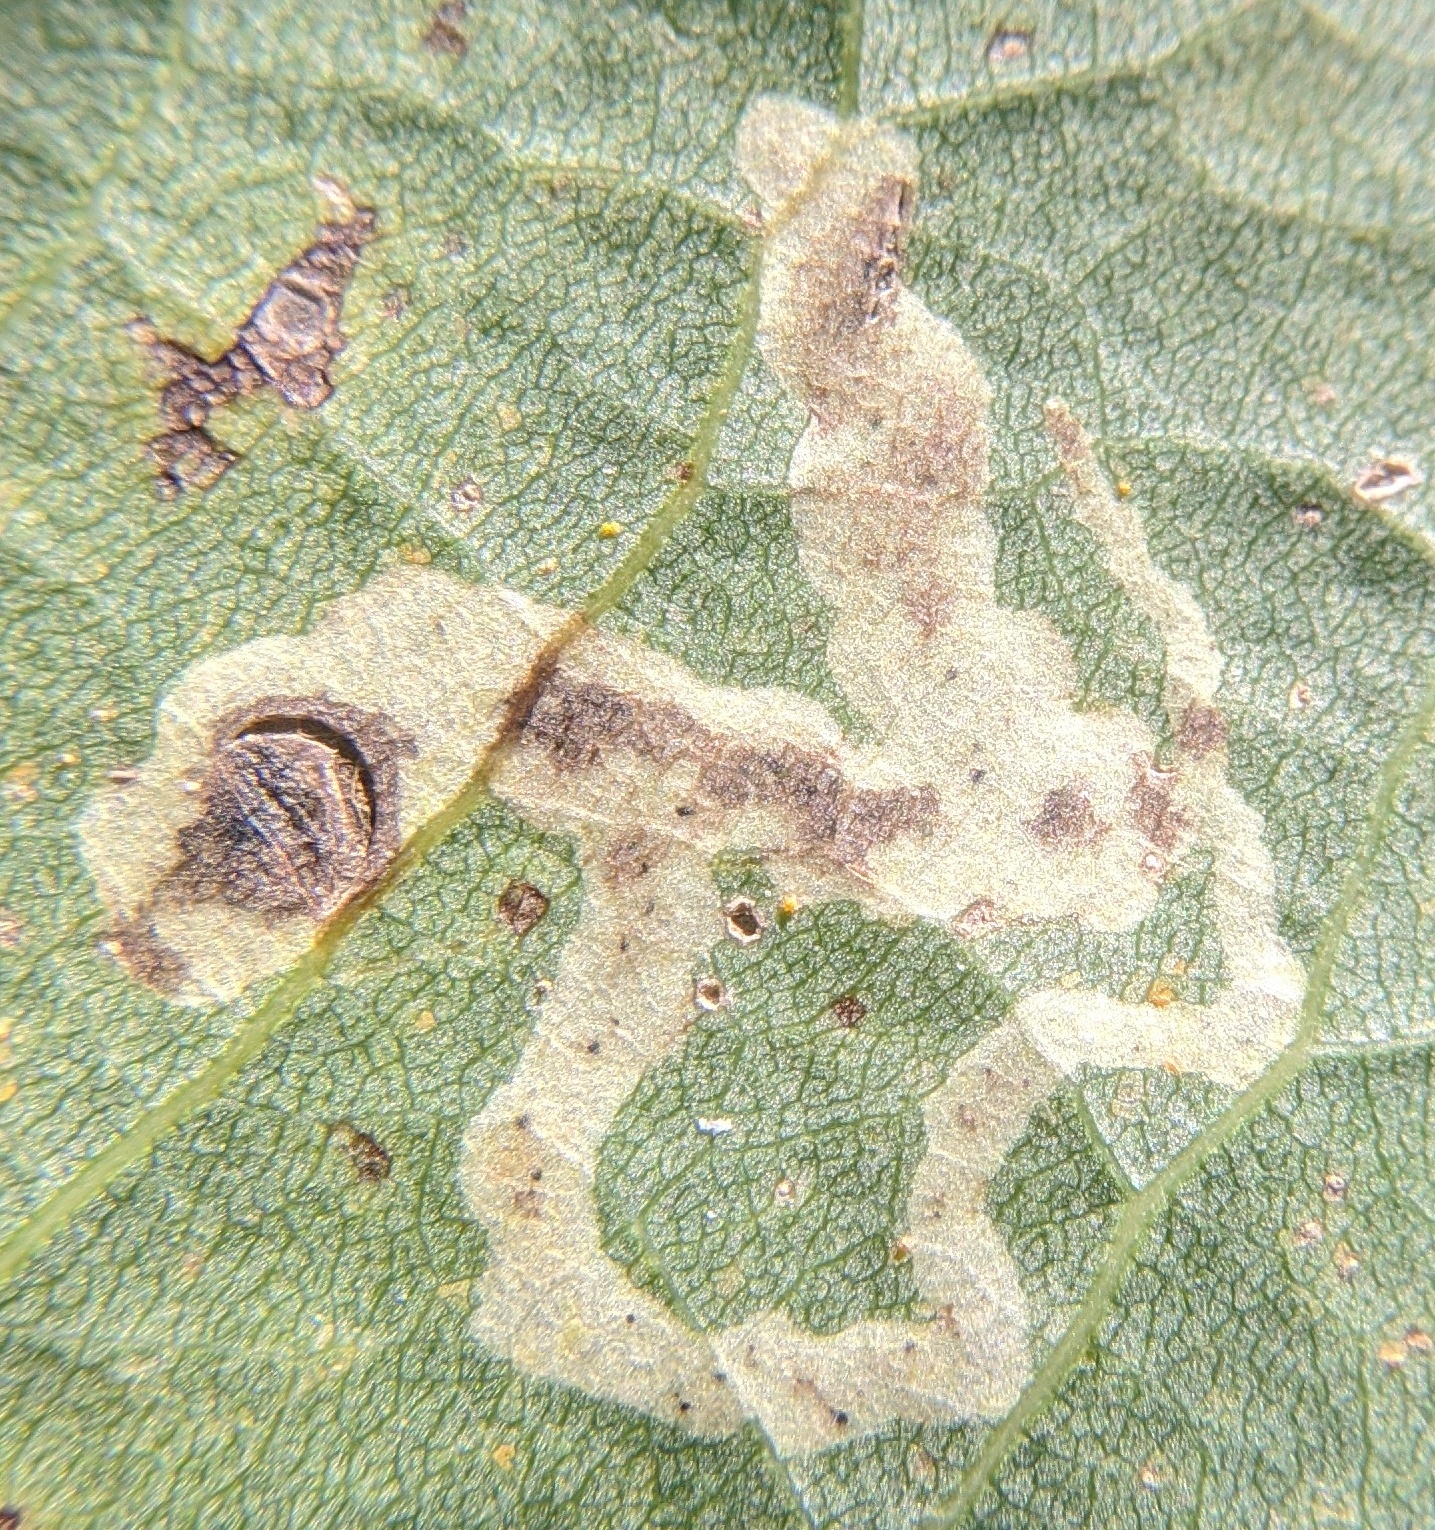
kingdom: Animalia
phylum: Arthropoda
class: Insecta
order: Diptera
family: Agromyzidae
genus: Aulagromyza
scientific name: Aulagromyza populicola
